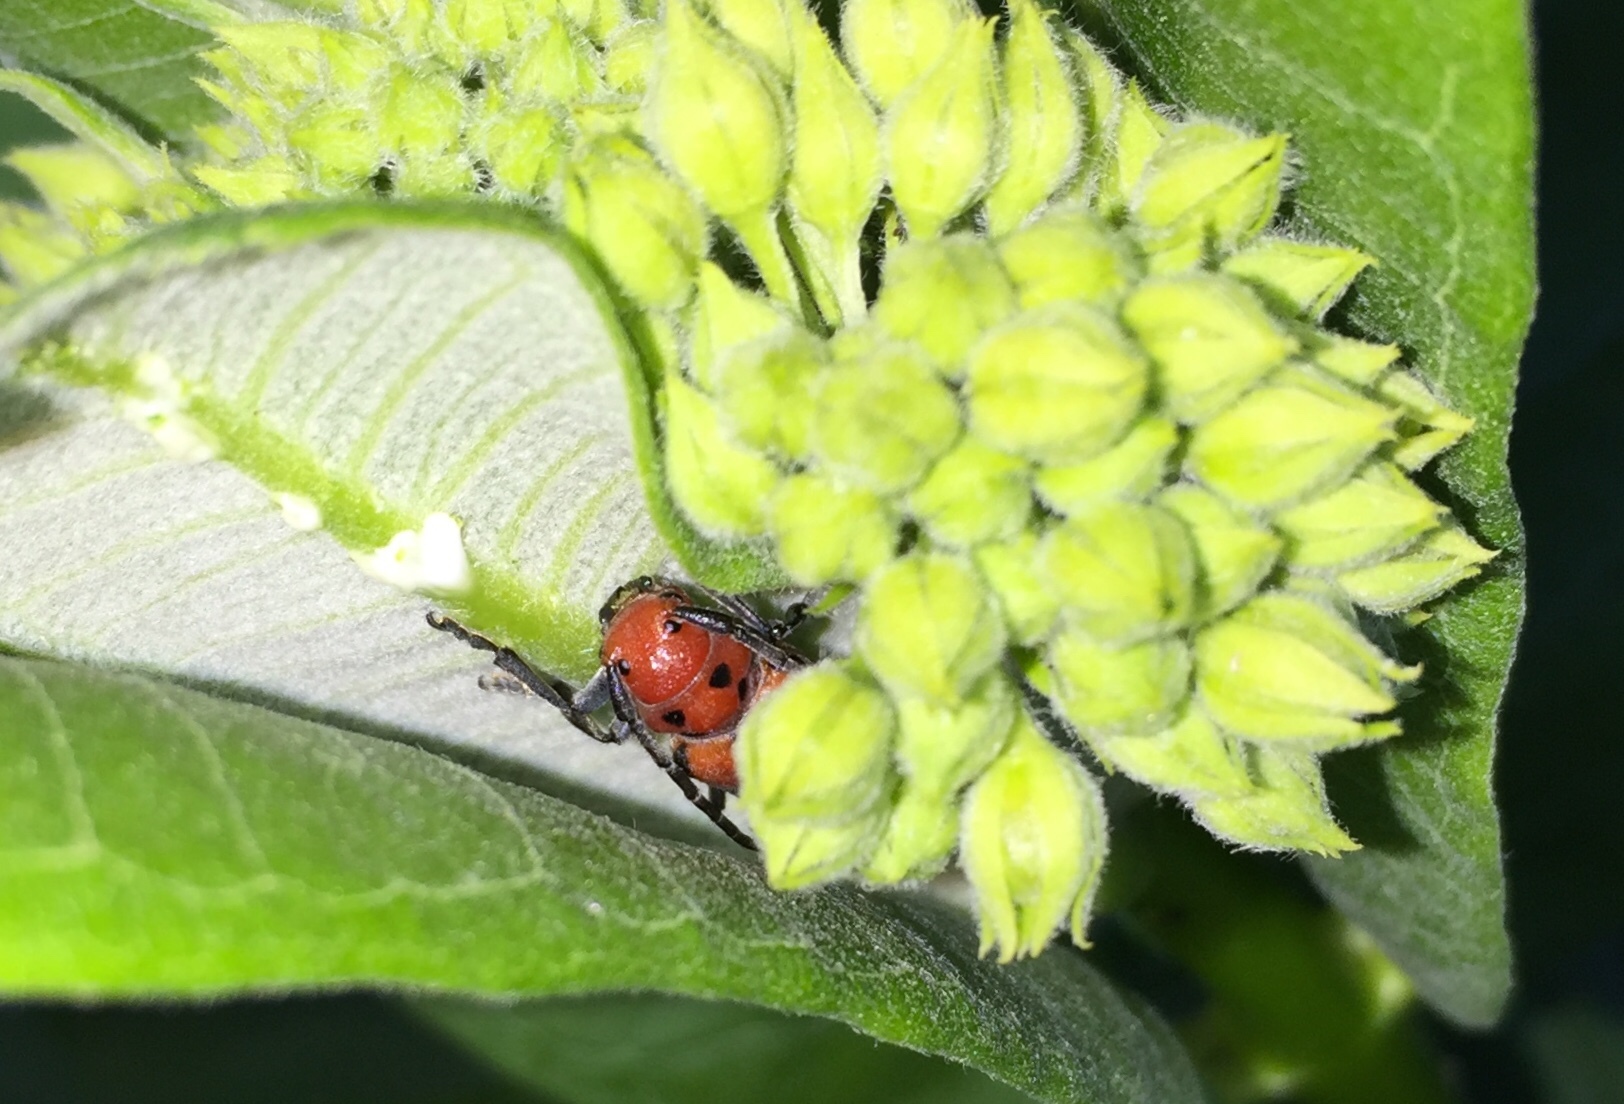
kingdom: Animalia
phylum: Arthropoda
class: Insecta
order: Coleoptera
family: Cerambycidae
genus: Tetraopes
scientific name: Tetraopes tetrophthalmus
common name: Red milkweed beetle
